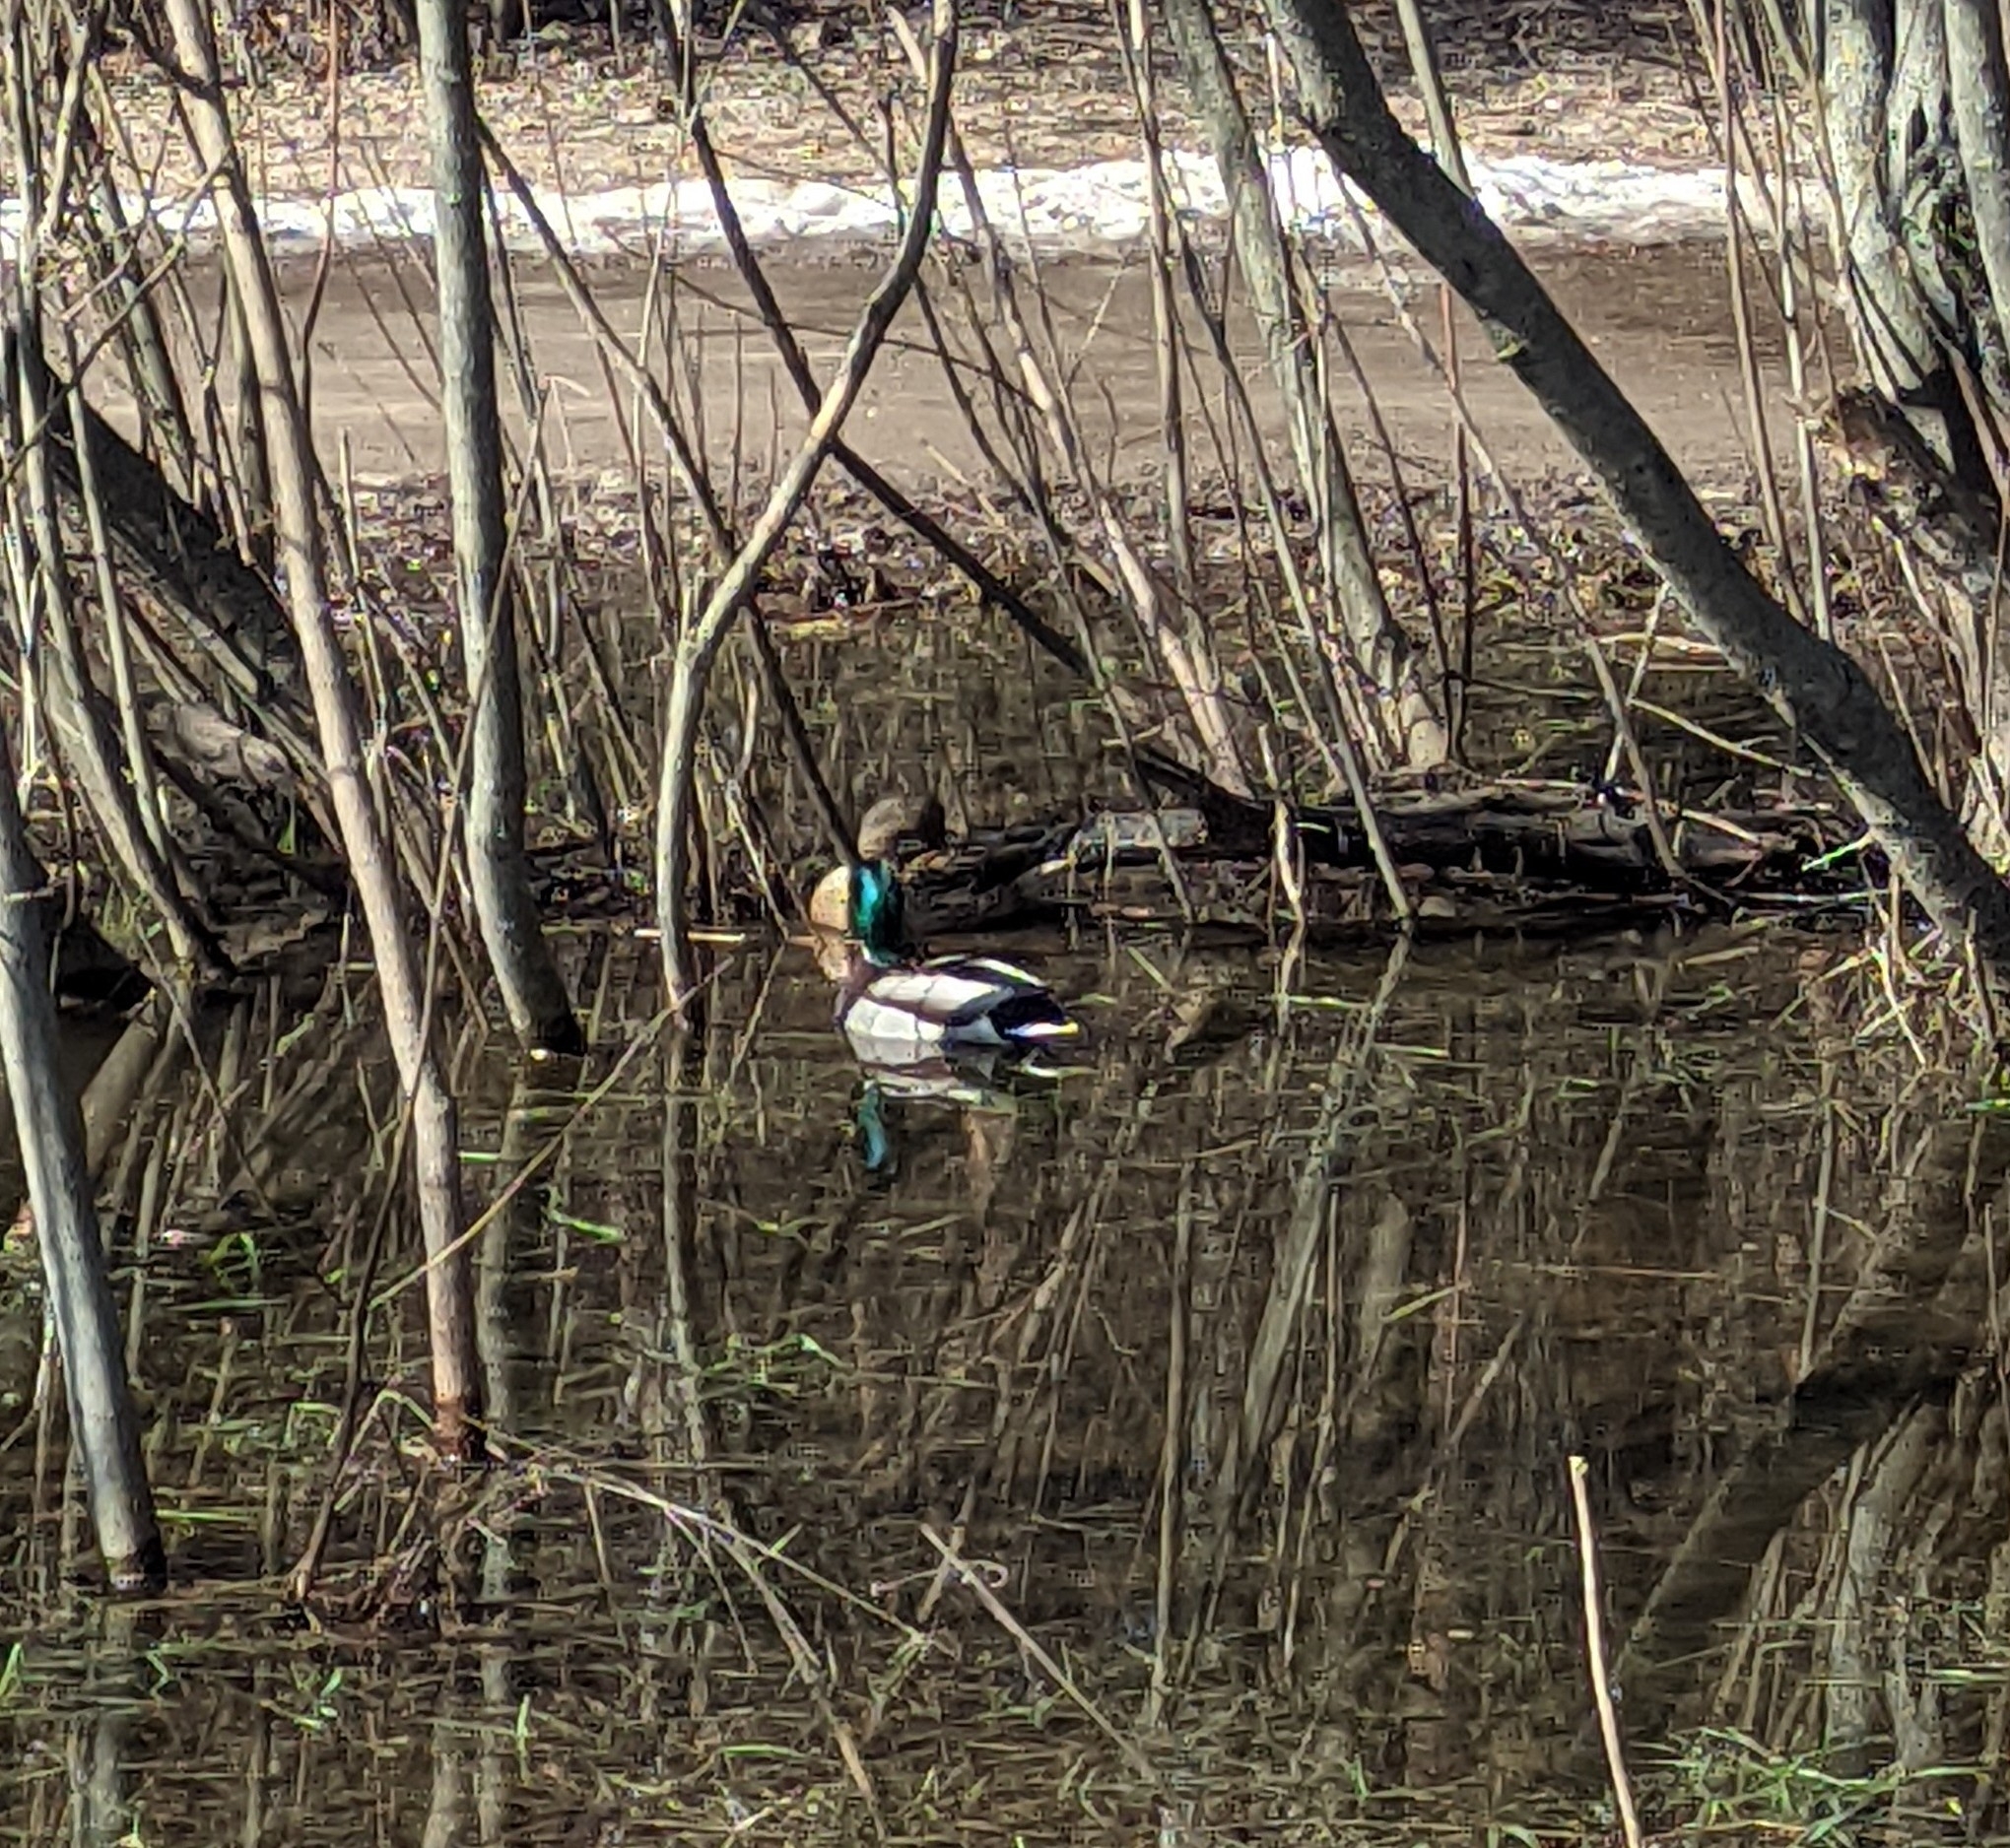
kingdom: Animalia
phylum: Chordata
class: Aves
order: Anseriformes
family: Anatidae
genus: Anas
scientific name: Anas platyrhynchos
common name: Mallard
